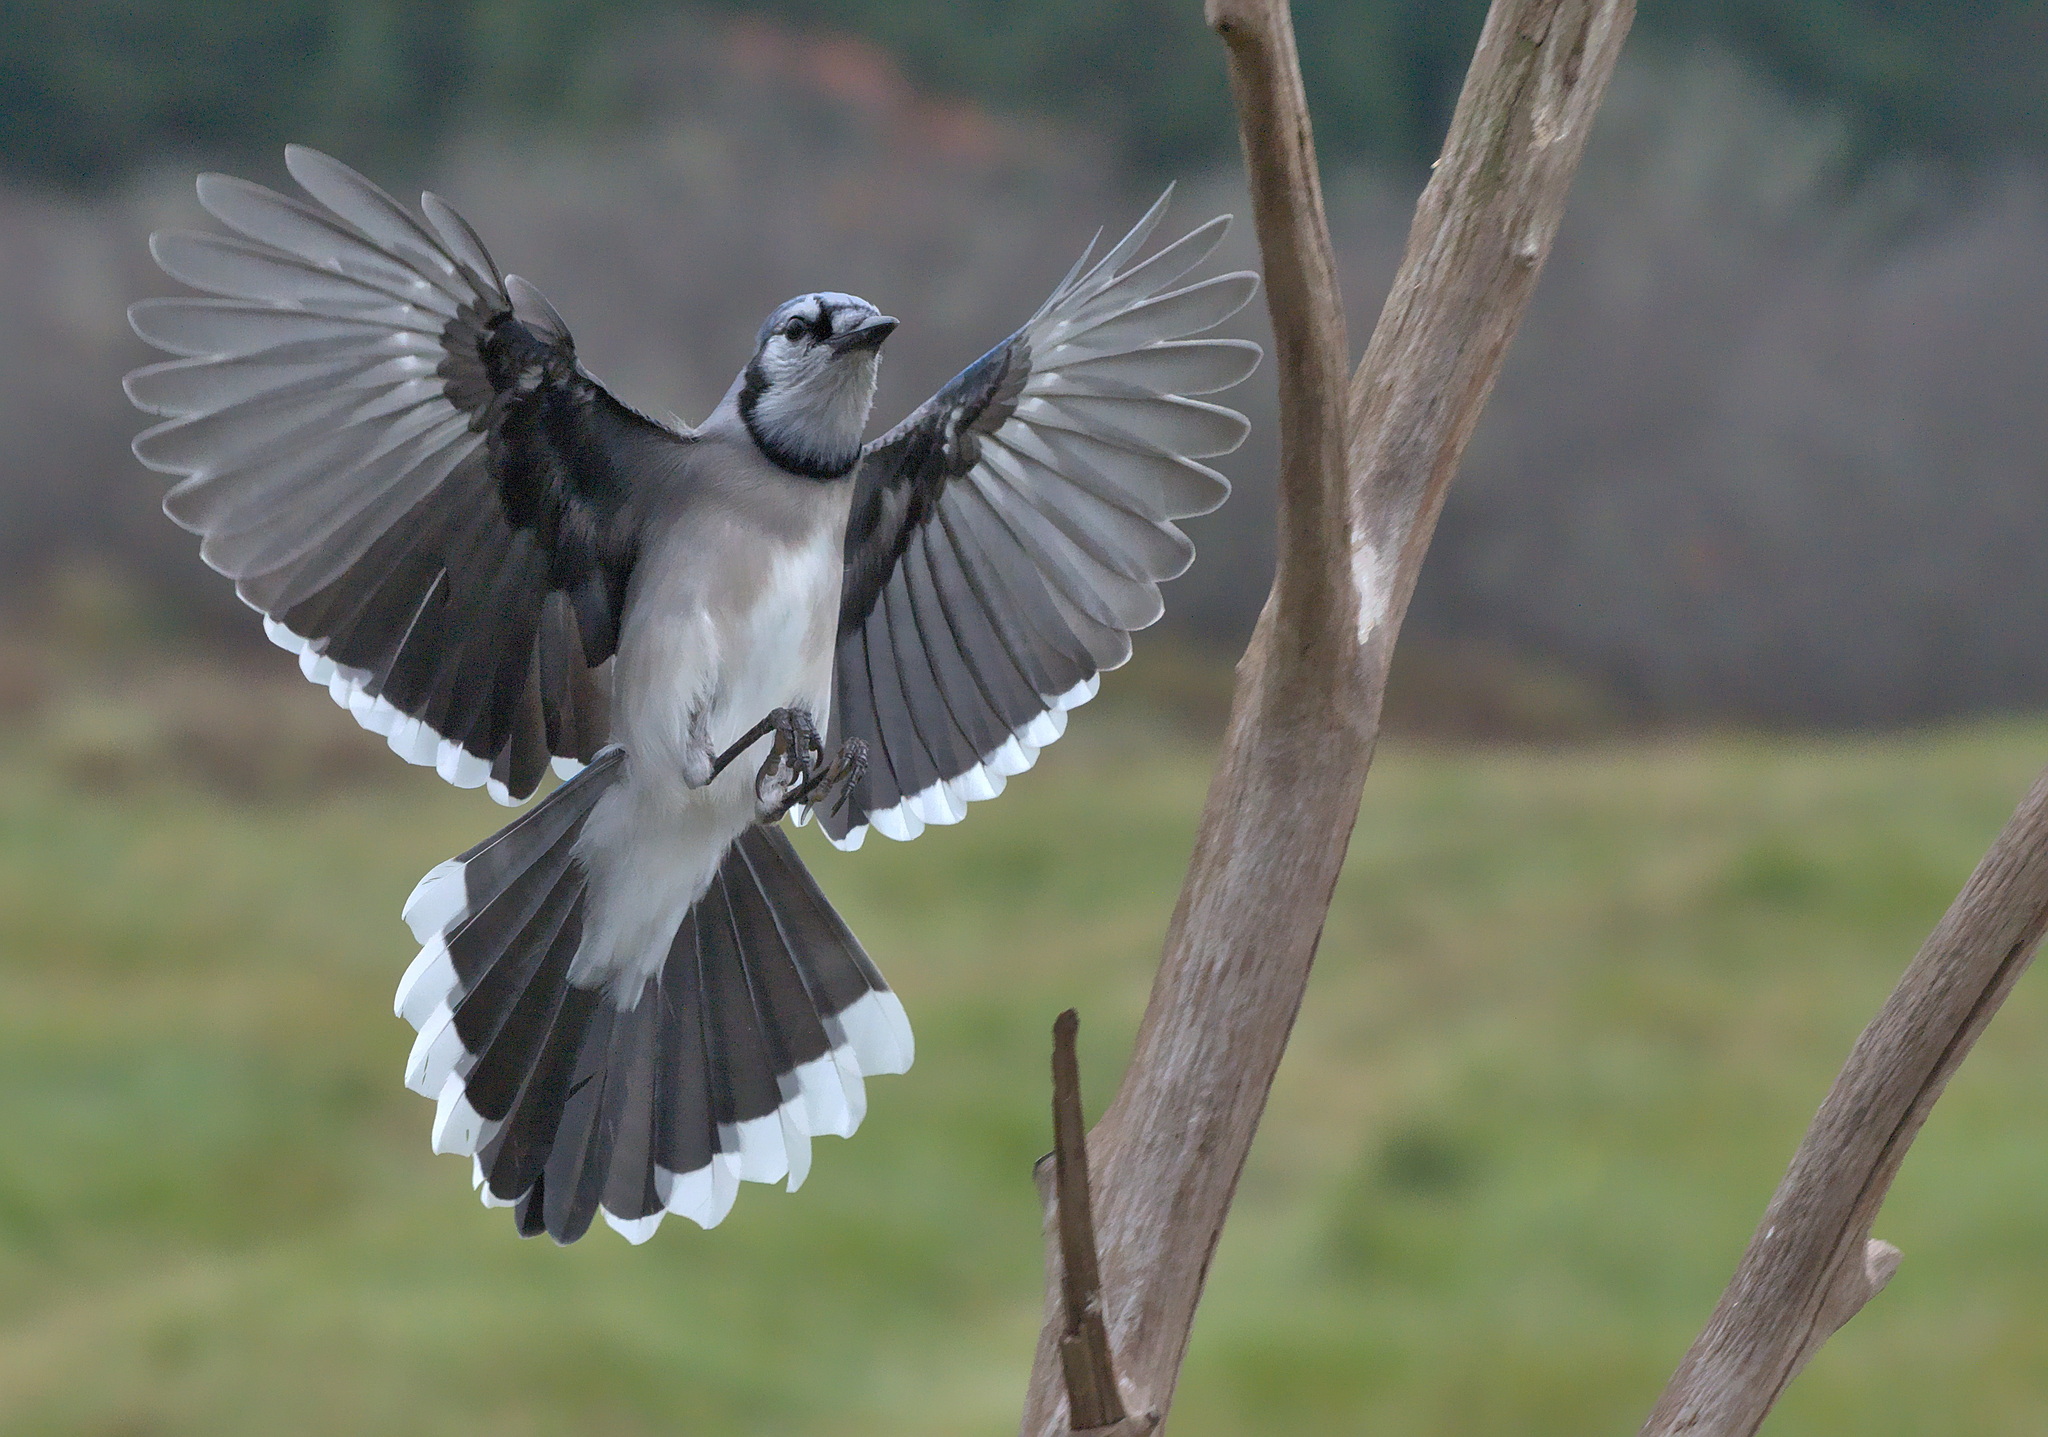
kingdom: Animalia
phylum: Chordata
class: Aves
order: Passeriformes
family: Corvidae
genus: Cyanocitta
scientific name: Cyanocitta cristata
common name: Blue jay
